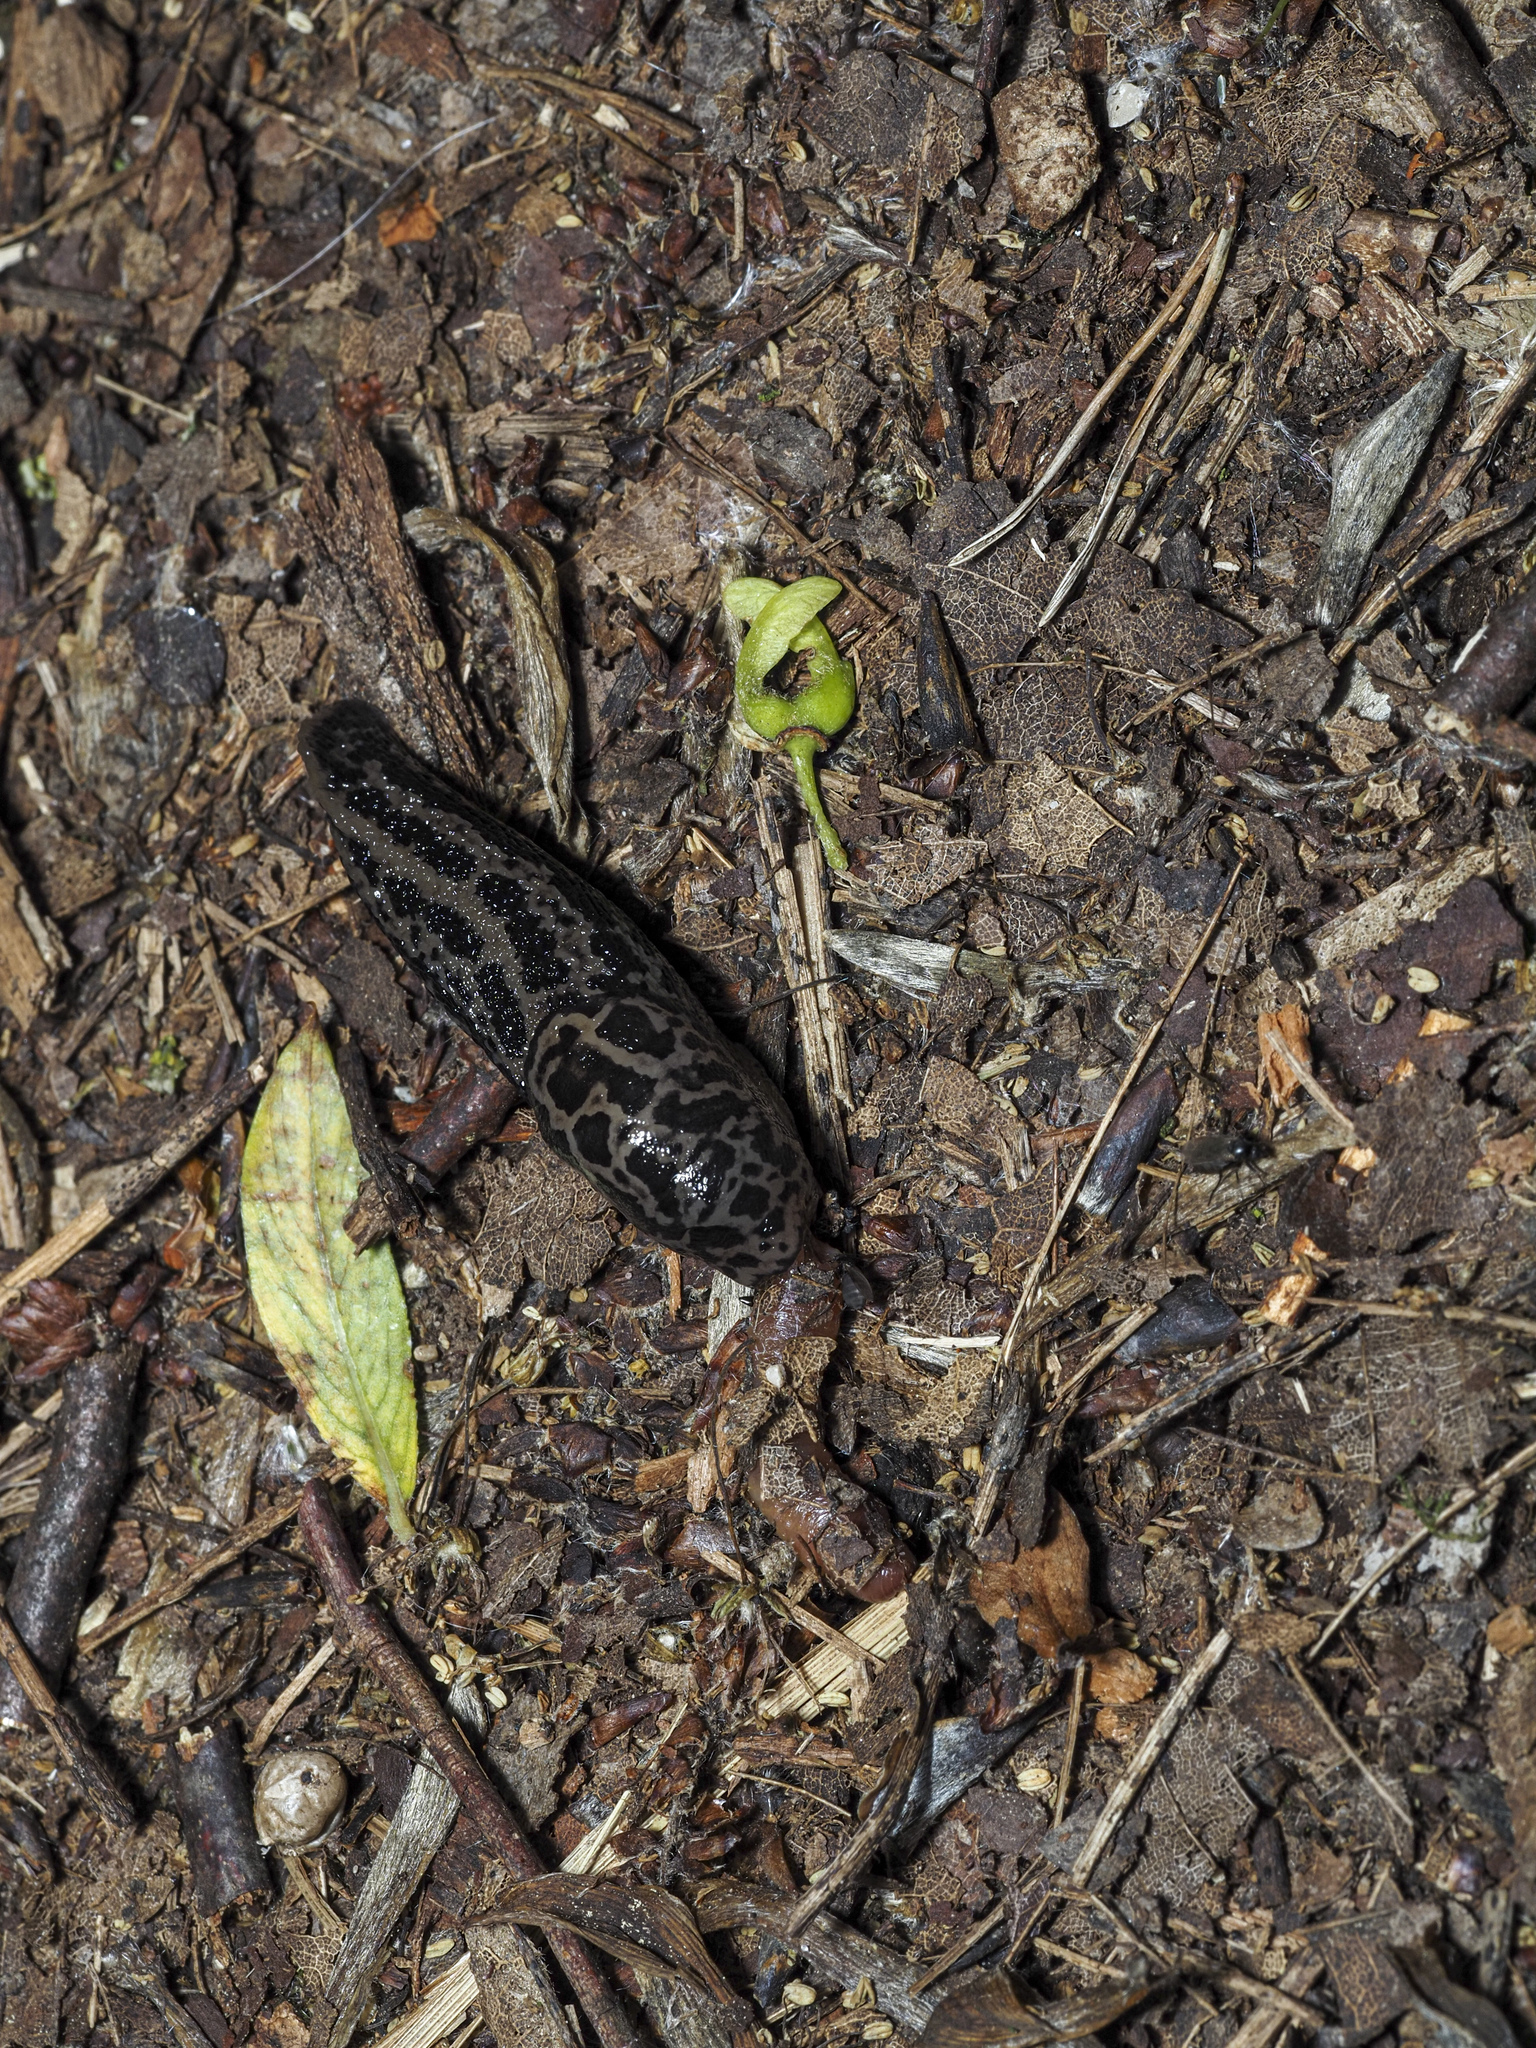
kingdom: Animalia
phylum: Mollusca
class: Gastropoda
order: Stylommatophora
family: Limacidae
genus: Limax
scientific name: Limax maximus
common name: Great grey slug
